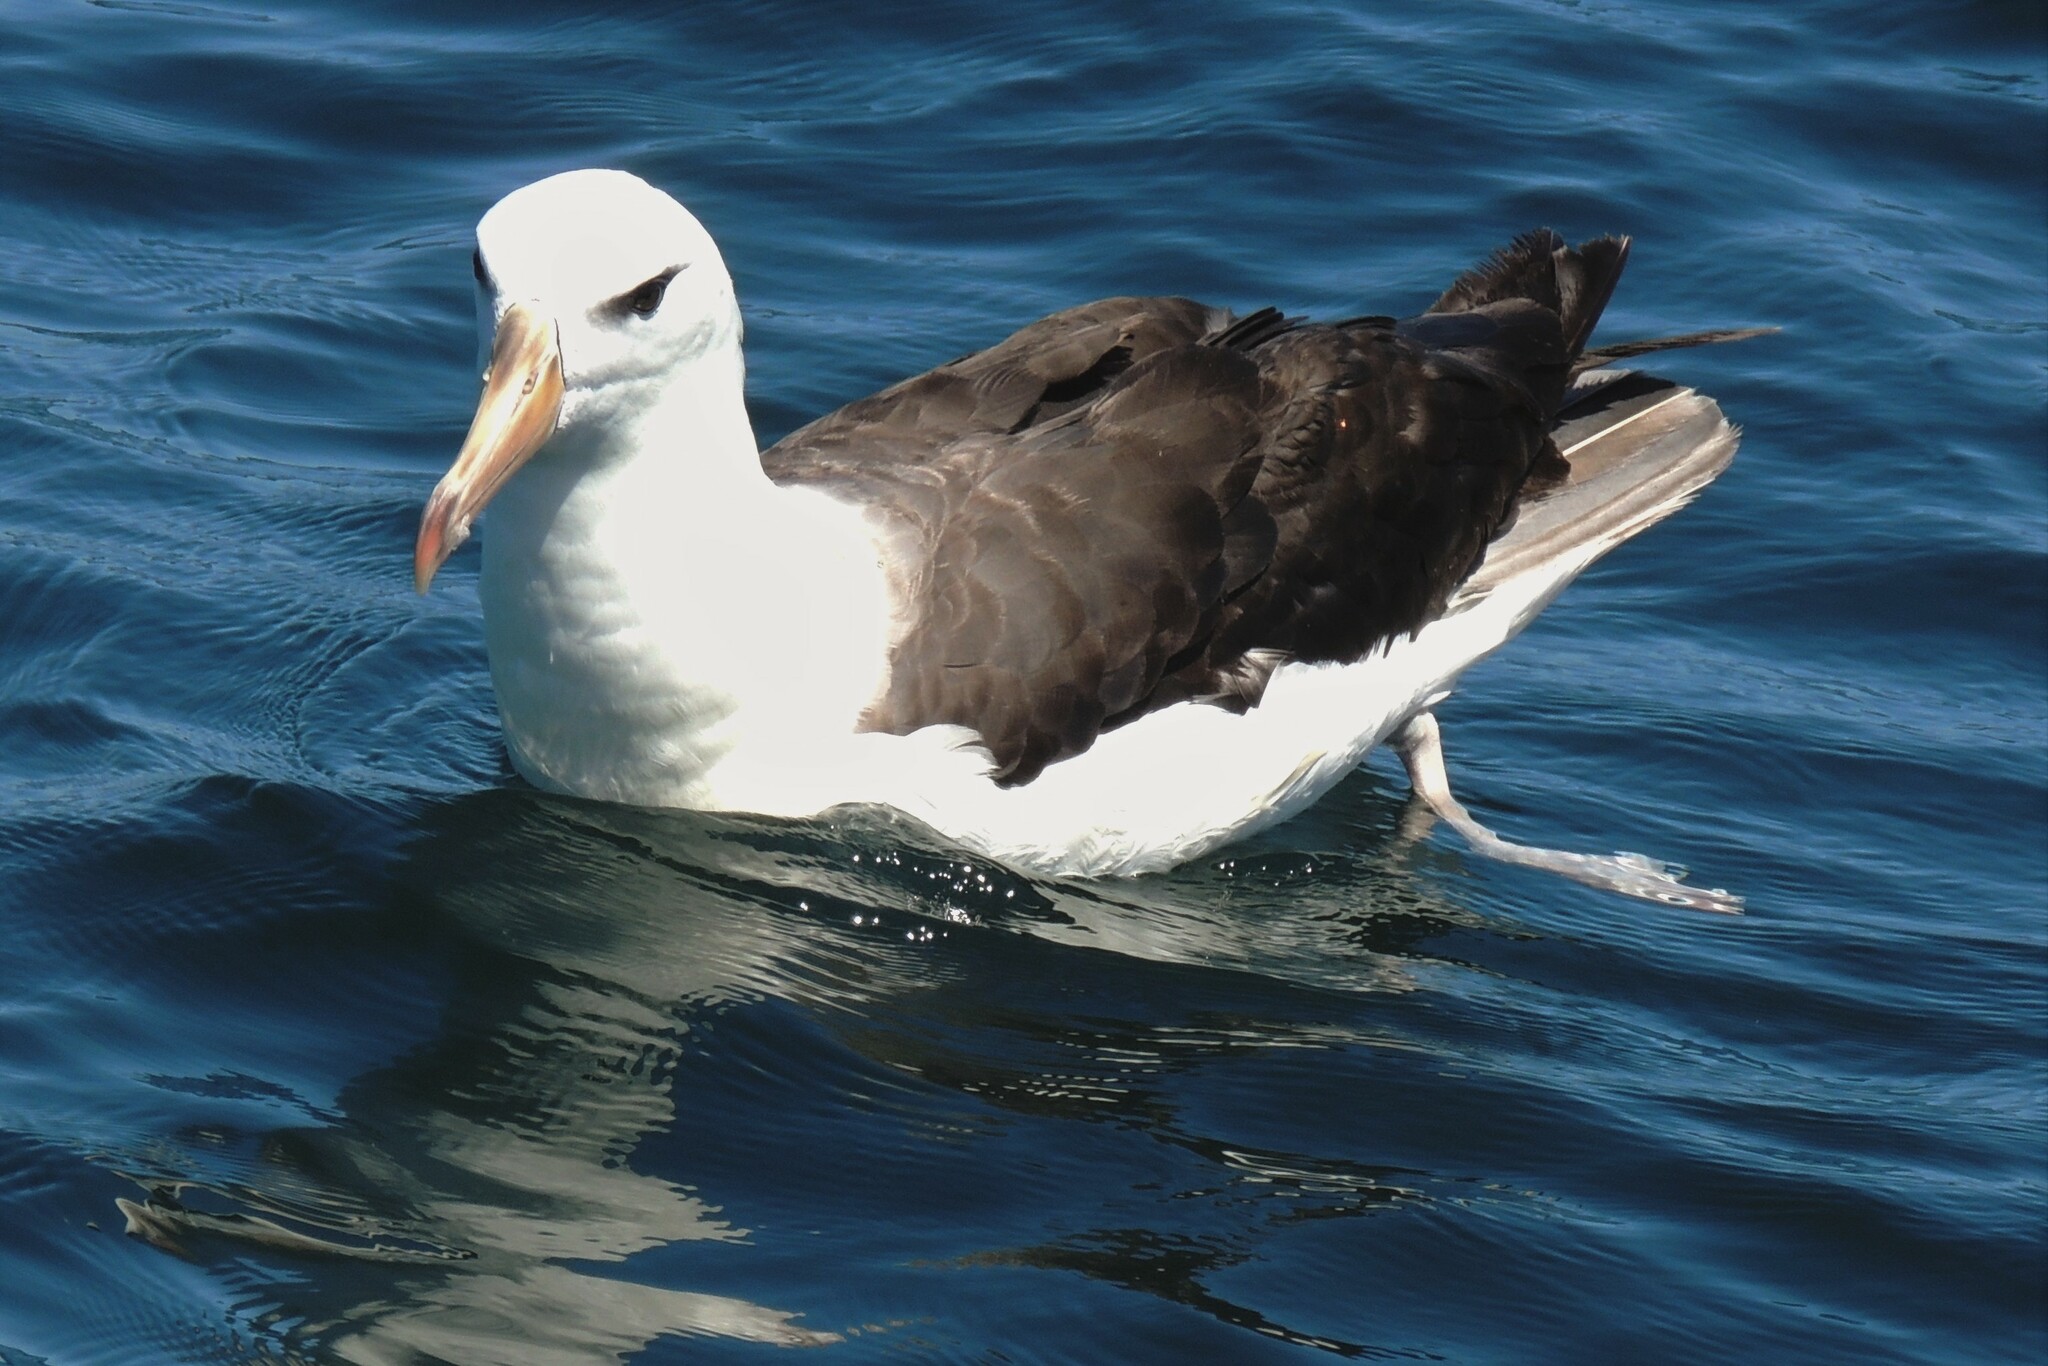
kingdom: Animalia
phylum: Chordata
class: Aves
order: Procellariiformes
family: Diomedeidae
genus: Thalassarche
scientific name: Thalassarche melanophris
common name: Black-browed albatross
